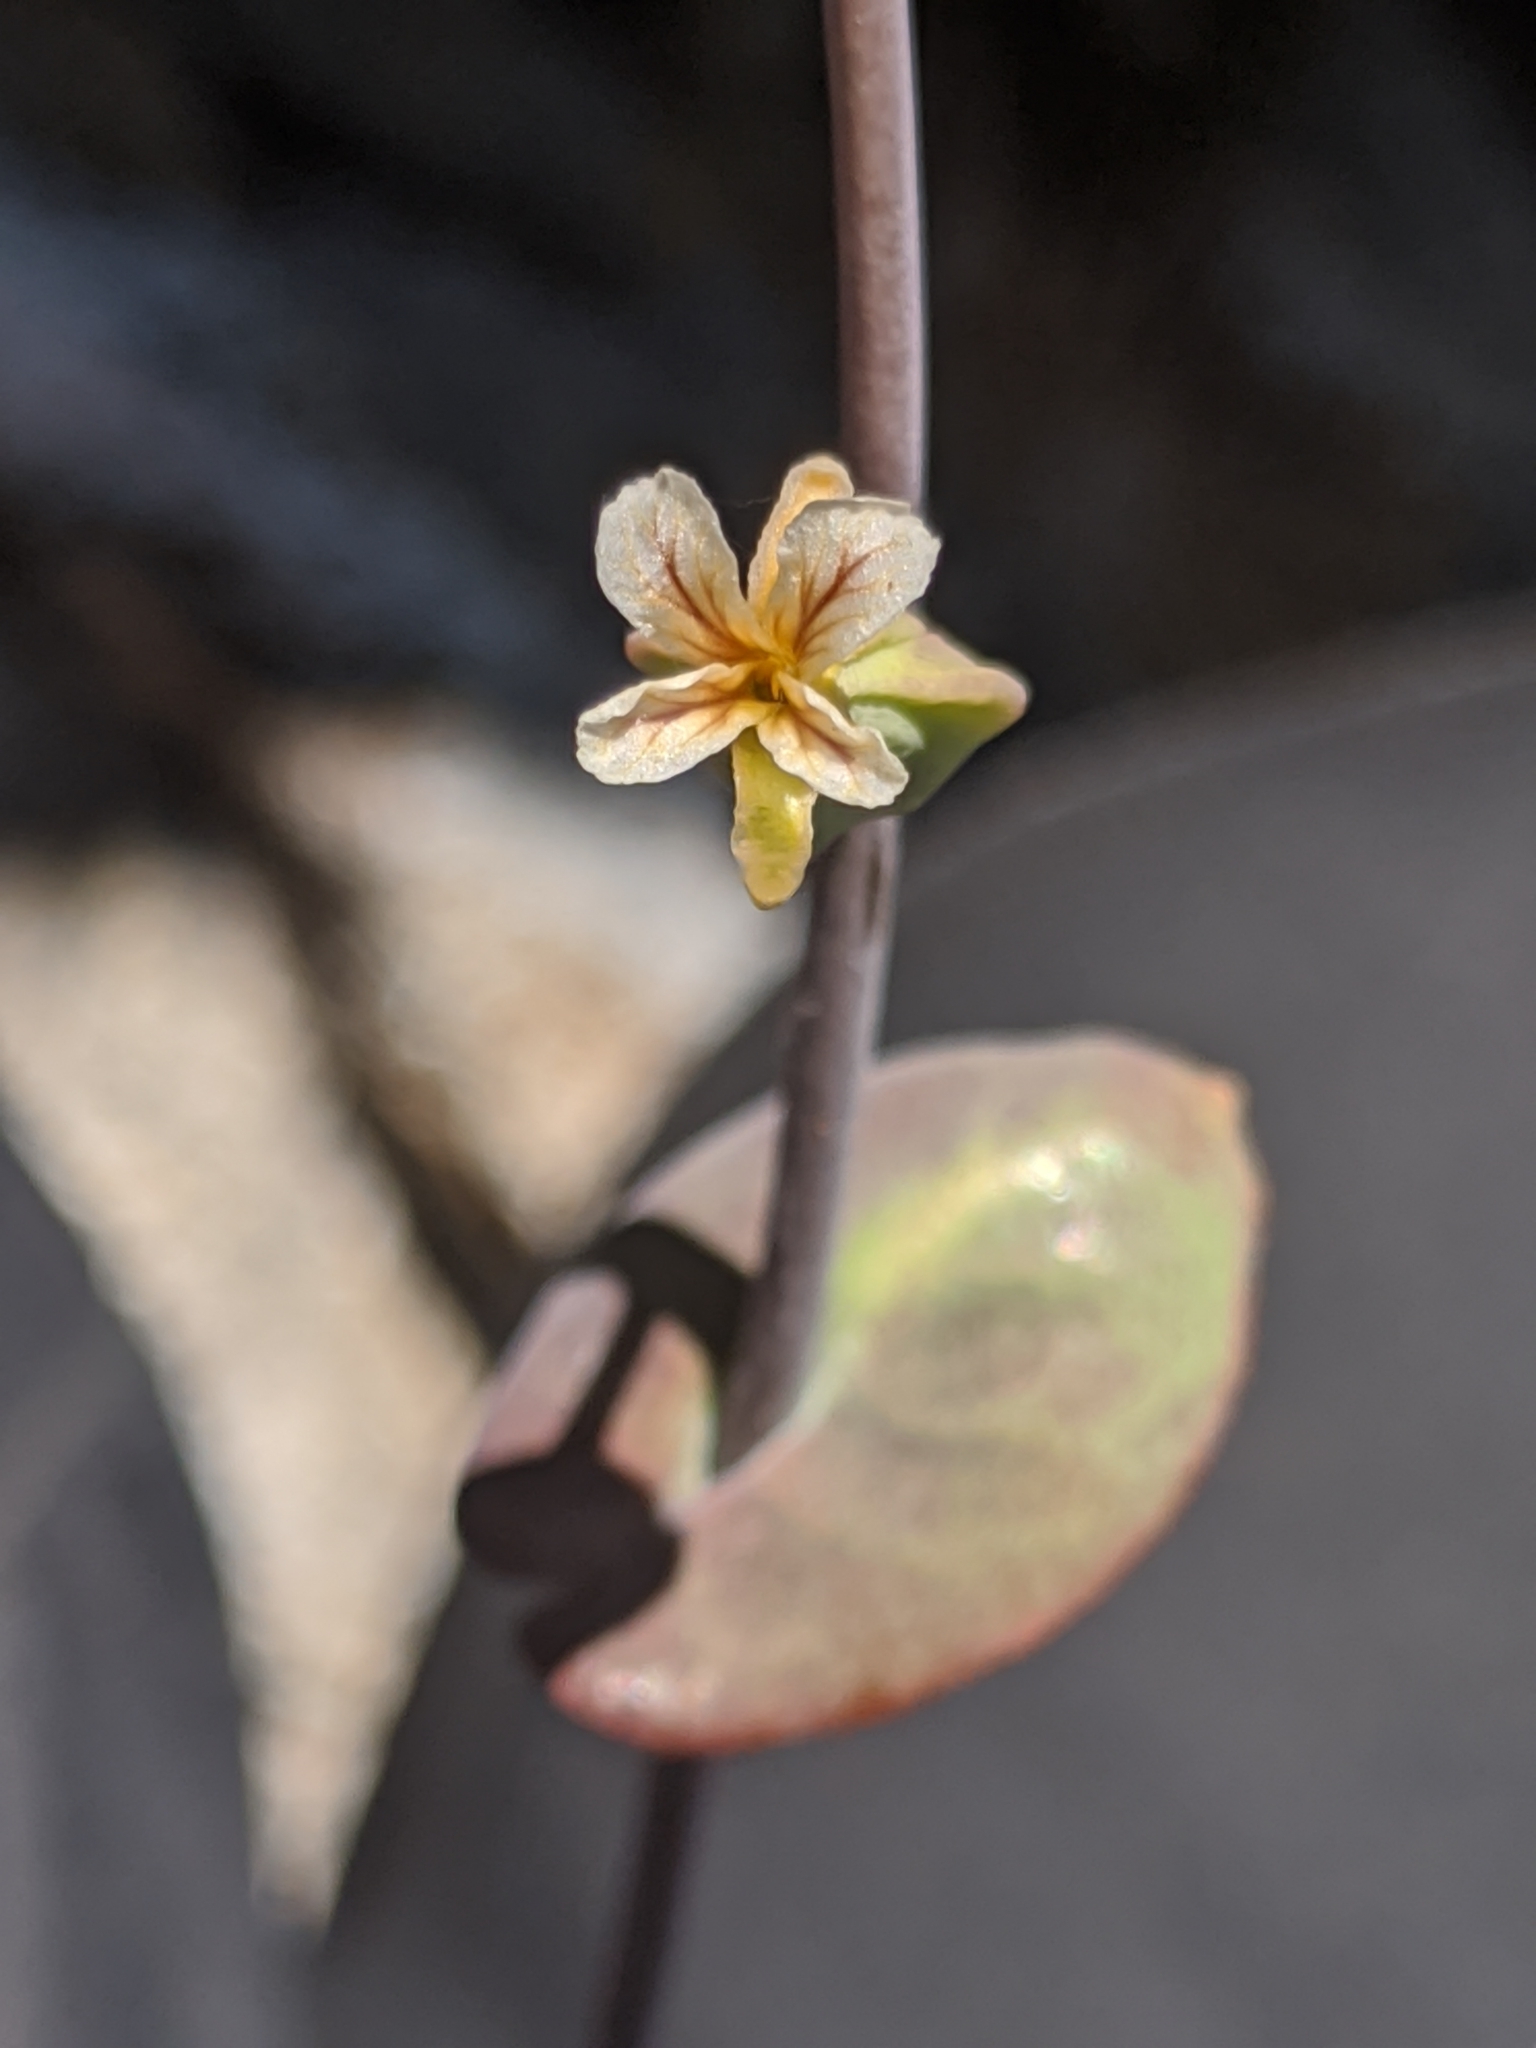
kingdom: Plantae
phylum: Tracheophyta
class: Magnoliopsida
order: Brassicales
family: Brassicaceae
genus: Streptanthus
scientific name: Streptanthus tortuosus
